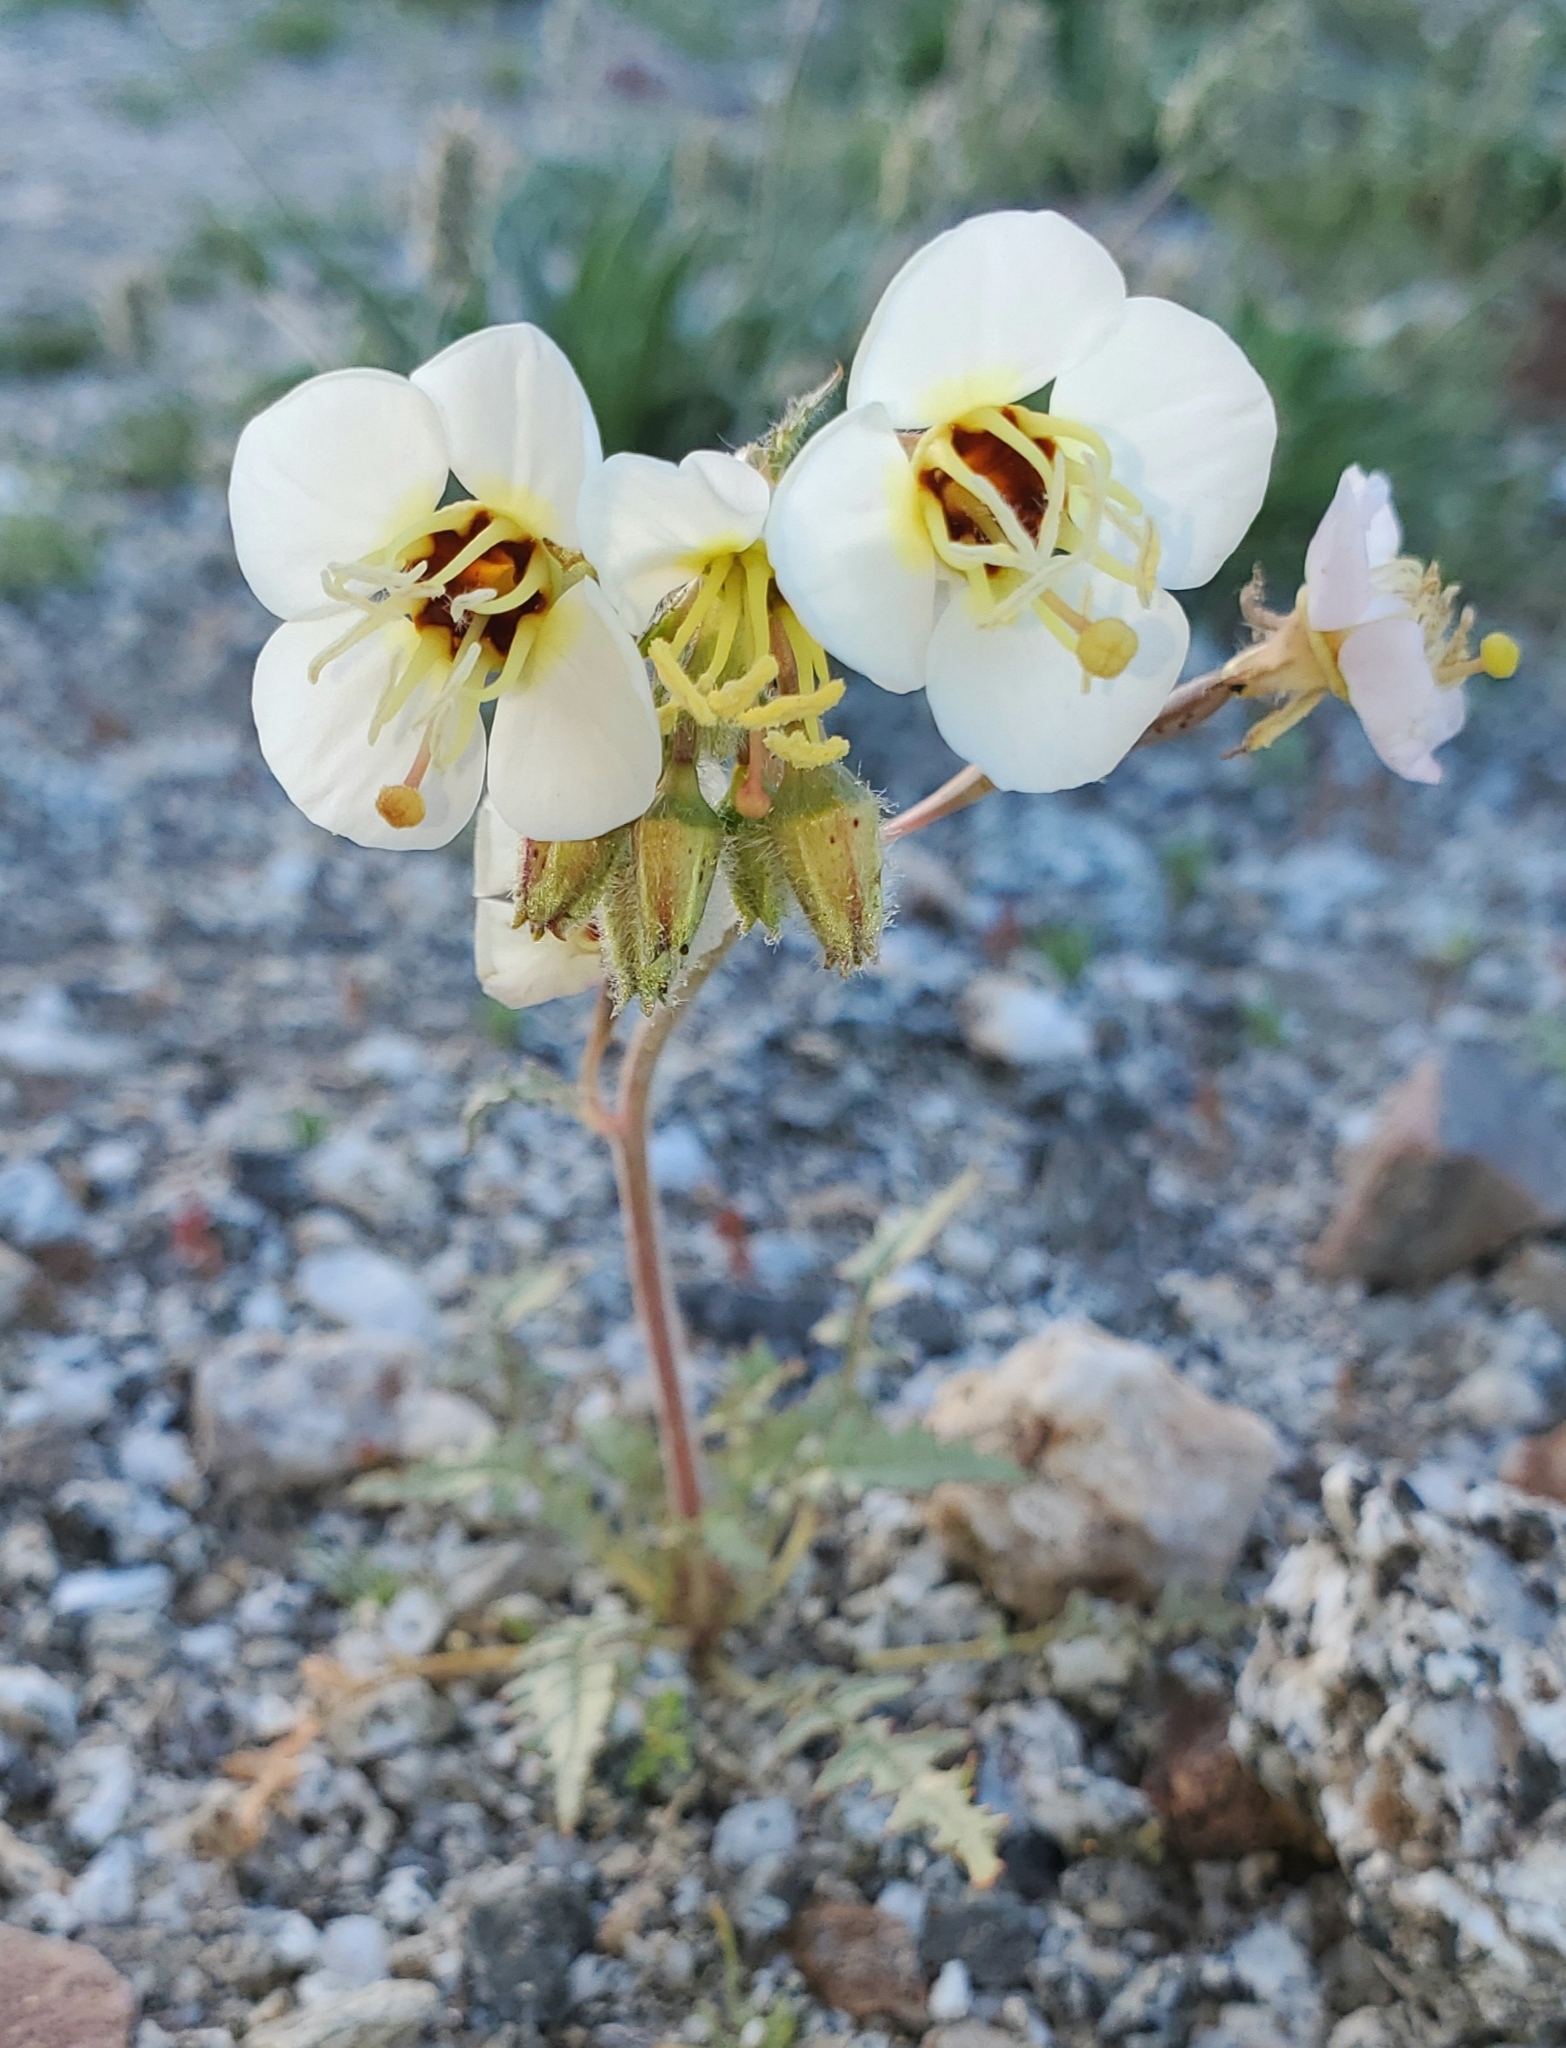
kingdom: Plantae
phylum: Tracheophyta
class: Magnoliopsida
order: Myrtales
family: Onagraceae
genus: Chylismia
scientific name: Chylismia claviformis
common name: Browneyes
